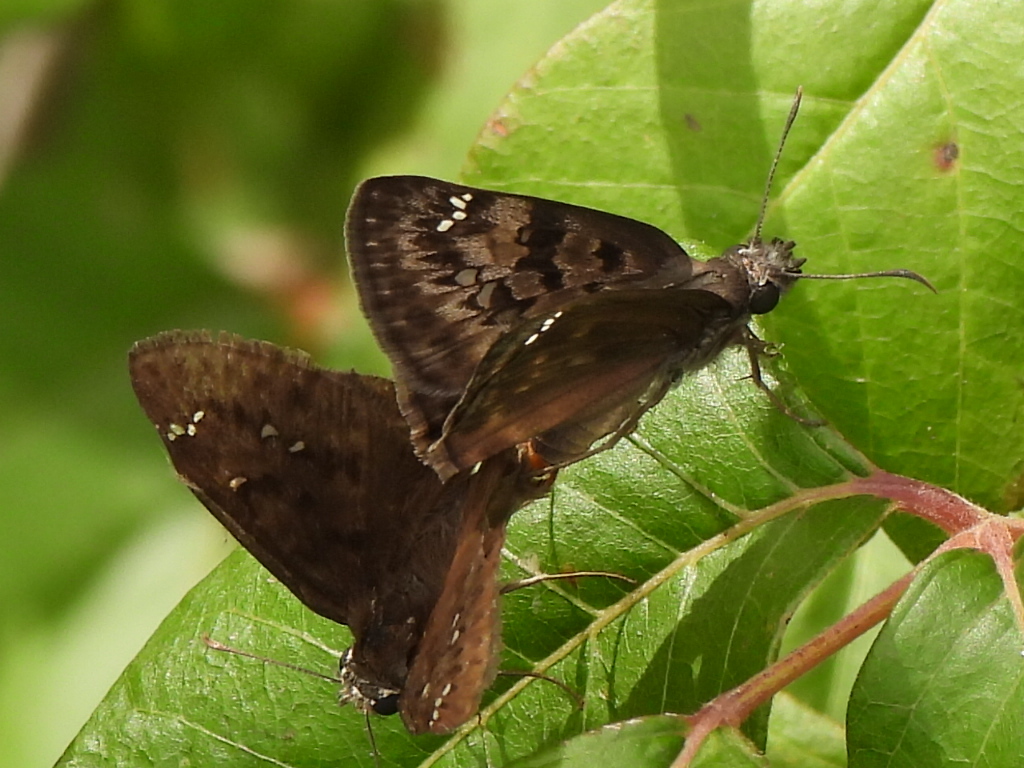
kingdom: Animalia
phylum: Arthropoda
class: Insecta
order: Lepidoptera
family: Hesperiidae
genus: Erynnis
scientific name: Erynnis horatius
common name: Horace's duskywing
